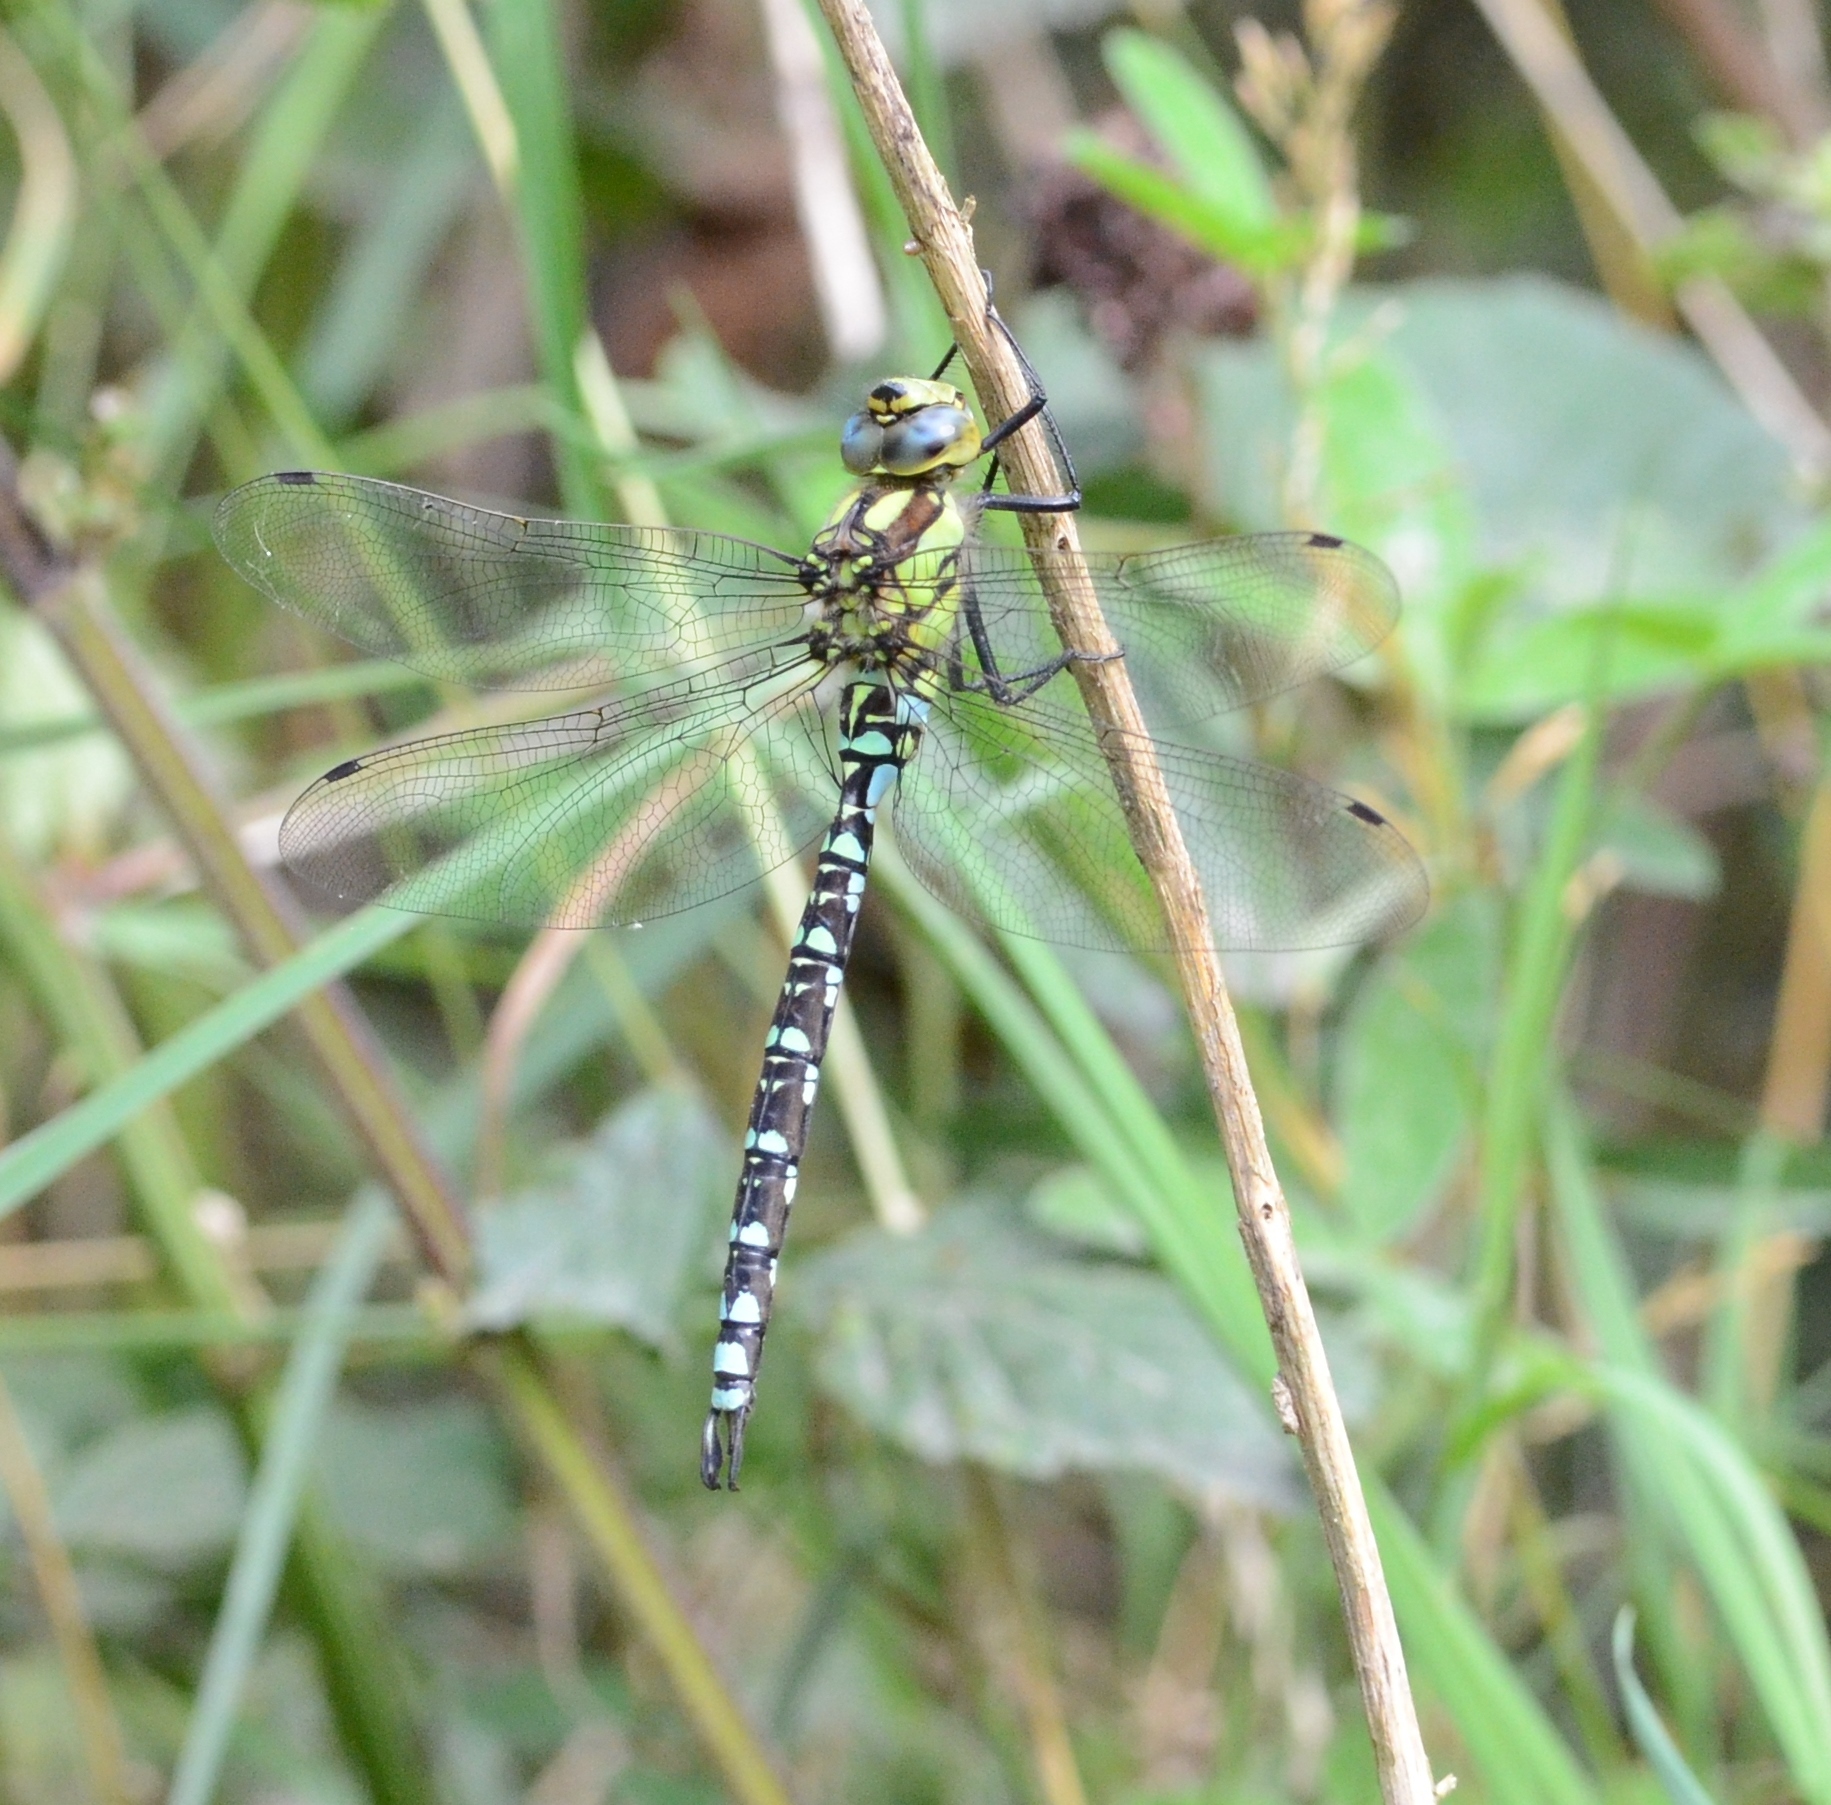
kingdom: Animalia
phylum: Arthropoda
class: Insecta
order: Odonata
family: Aeshnidae
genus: Aeshna
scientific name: Aeshna cyanea
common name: Southern hawker
